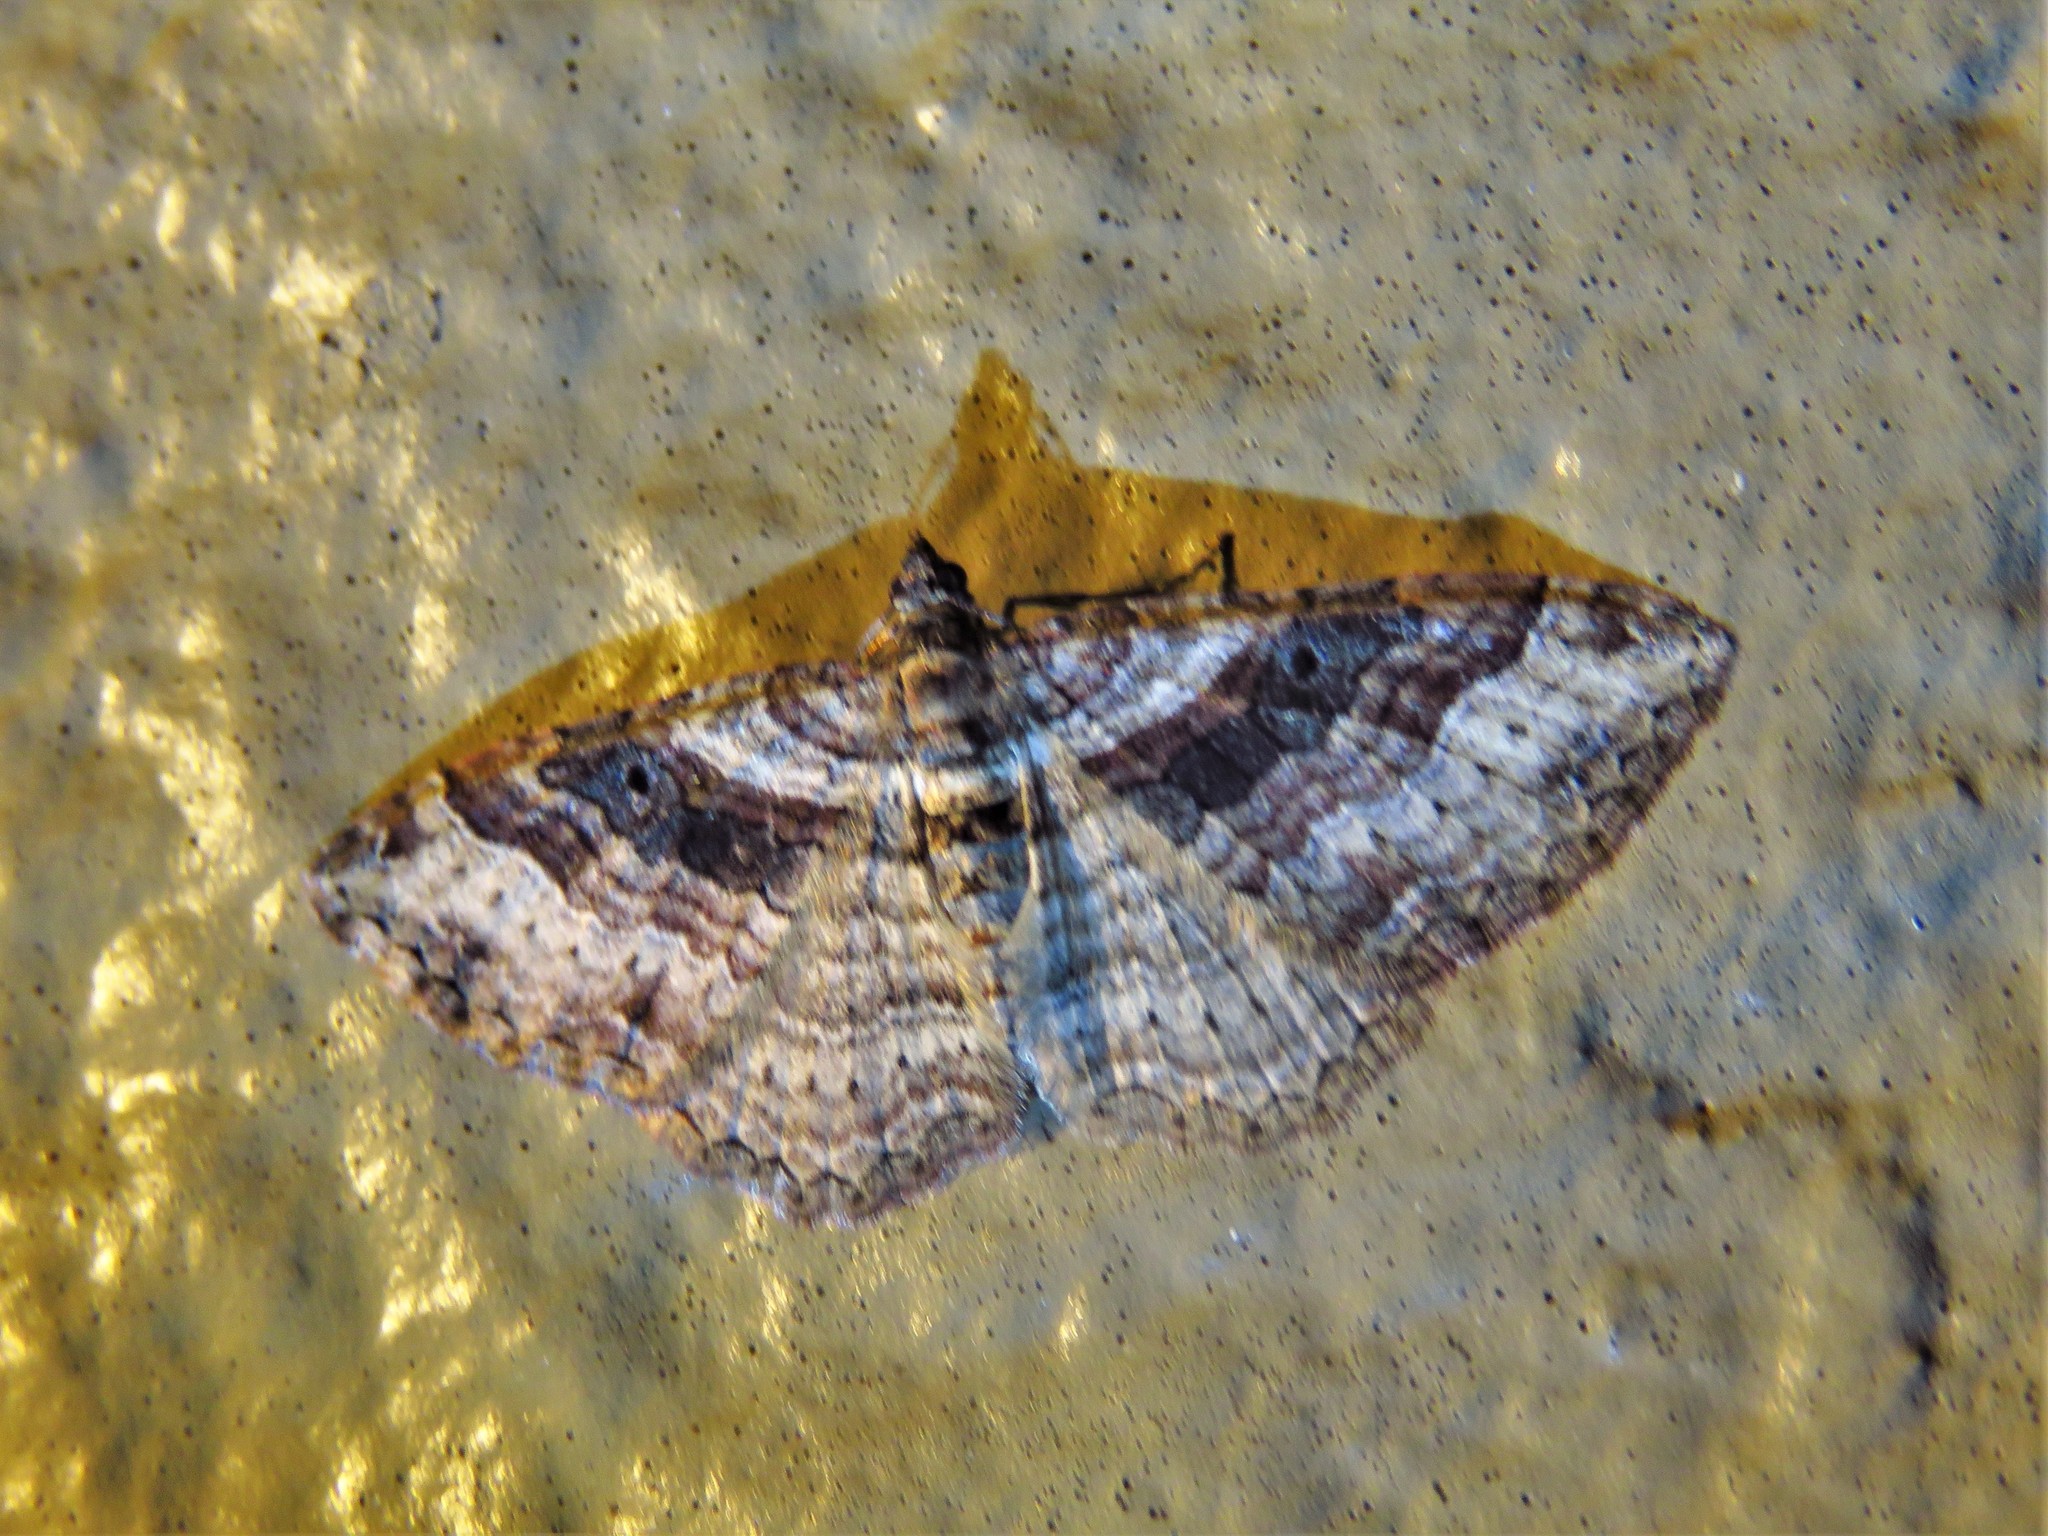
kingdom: Animalia
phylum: Arthropoda
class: Insecta
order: Lepidoptera
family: Geometridae
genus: Costaconvexa
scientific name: Costaconvexa centrostrigaria
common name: Bent-line carpet
